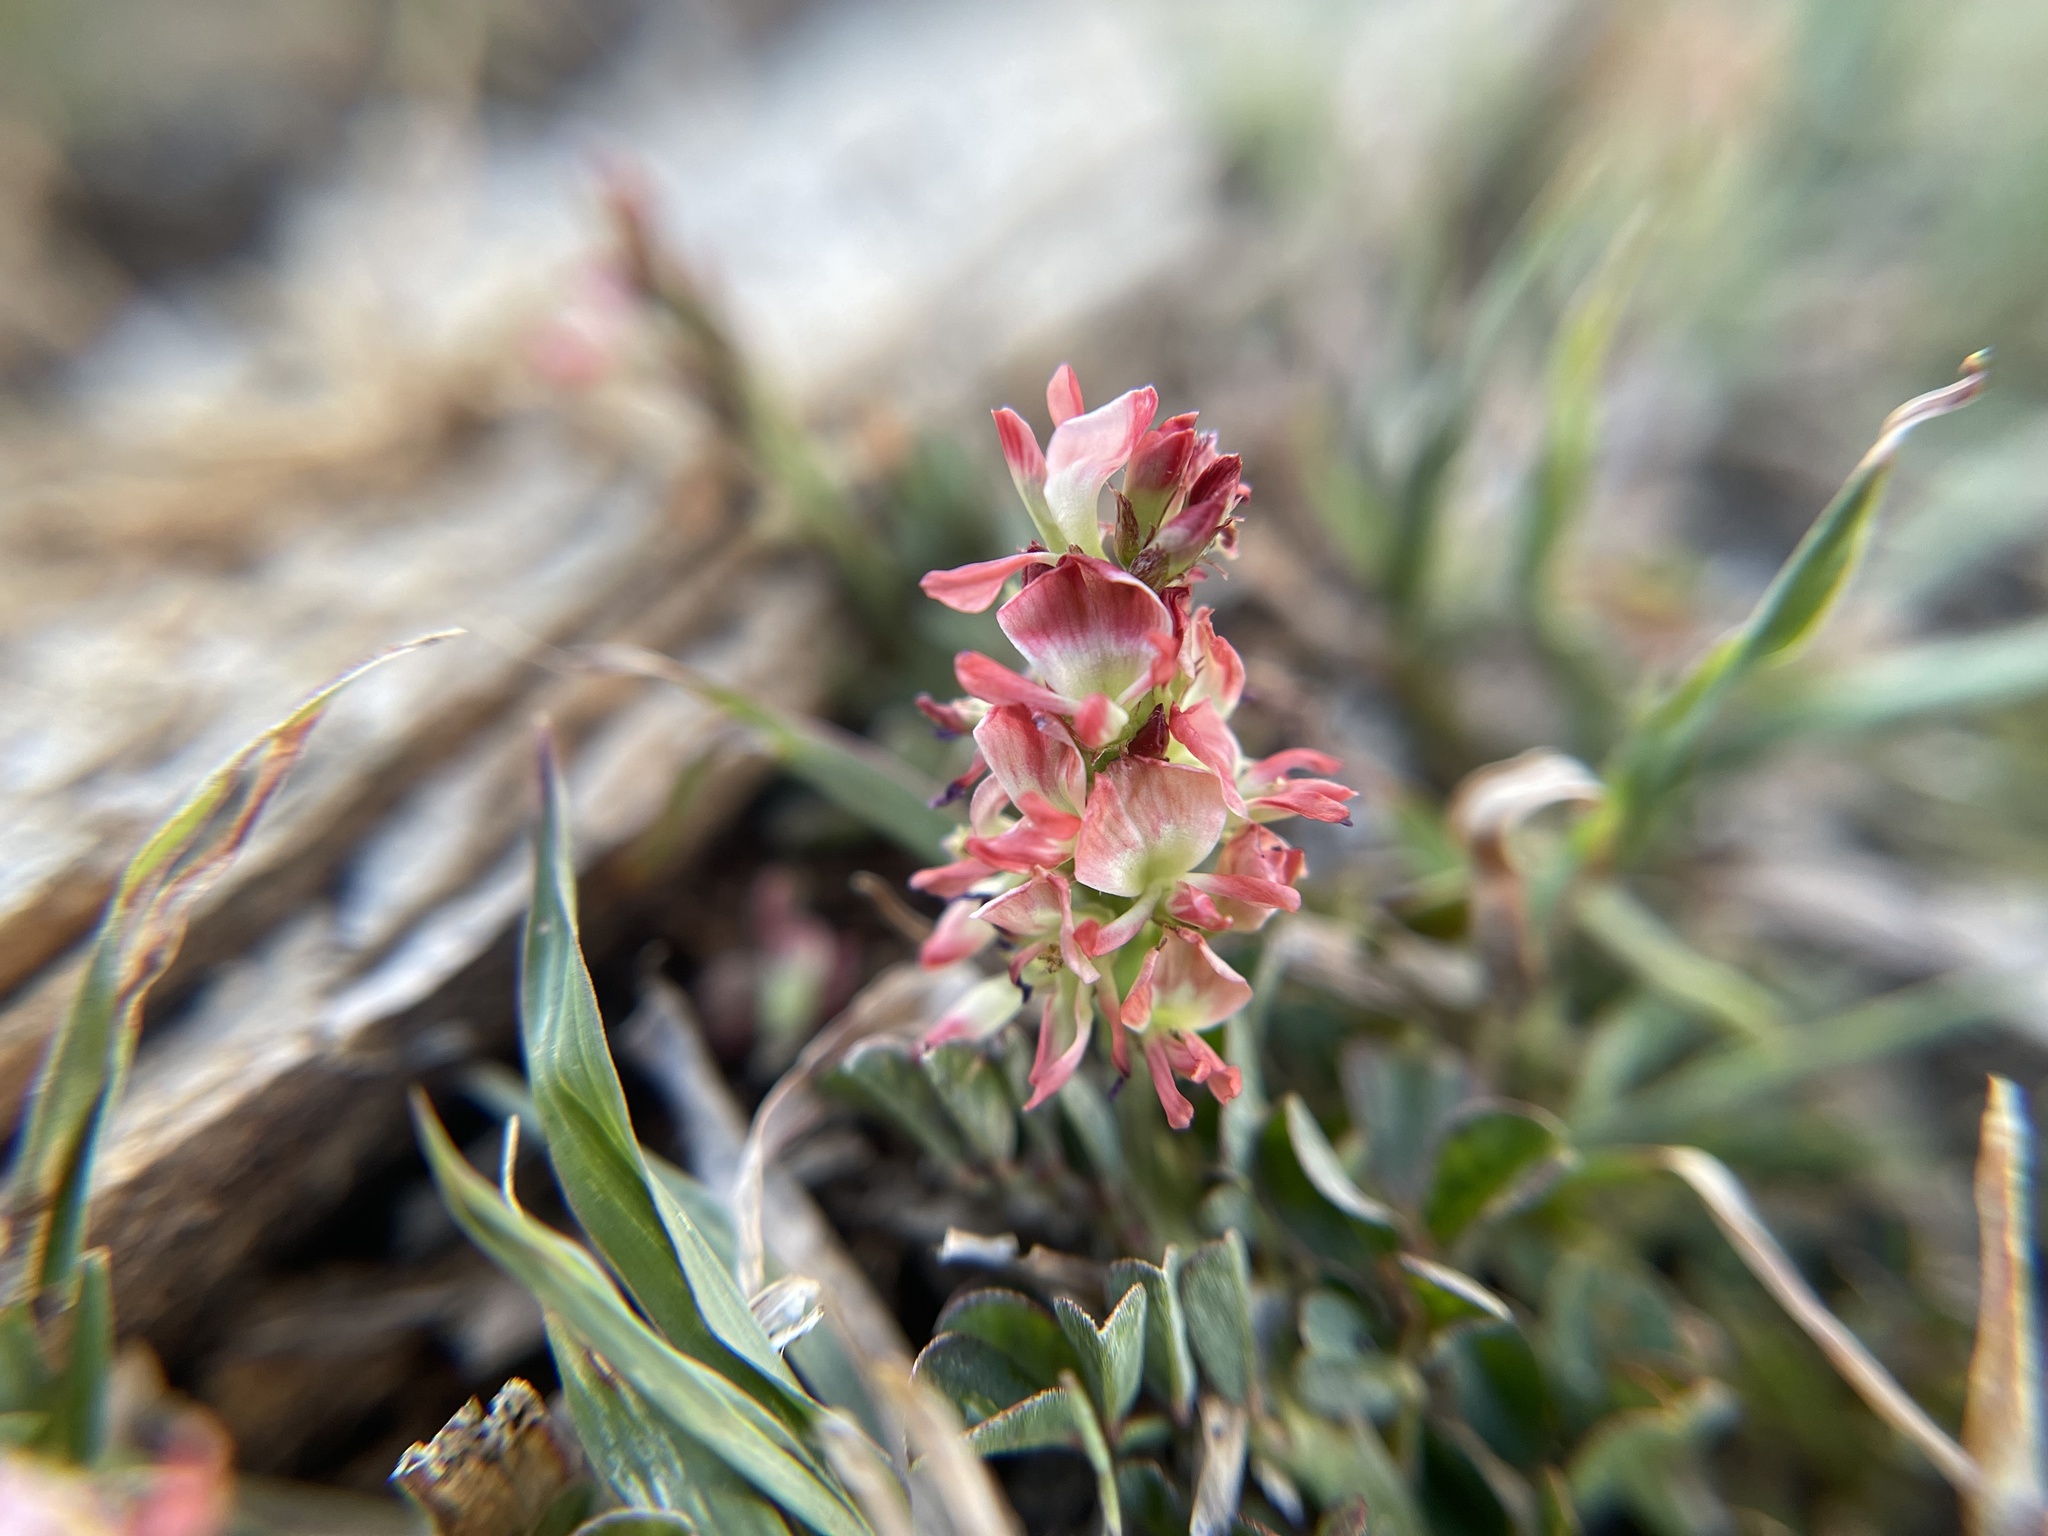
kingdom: Plantae
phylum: Tracheophyta
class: Magnoliopsida
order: Fabales
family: Fabaceae
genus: Indigofera
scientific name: Indigofera spicata
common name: Creeping indigo
